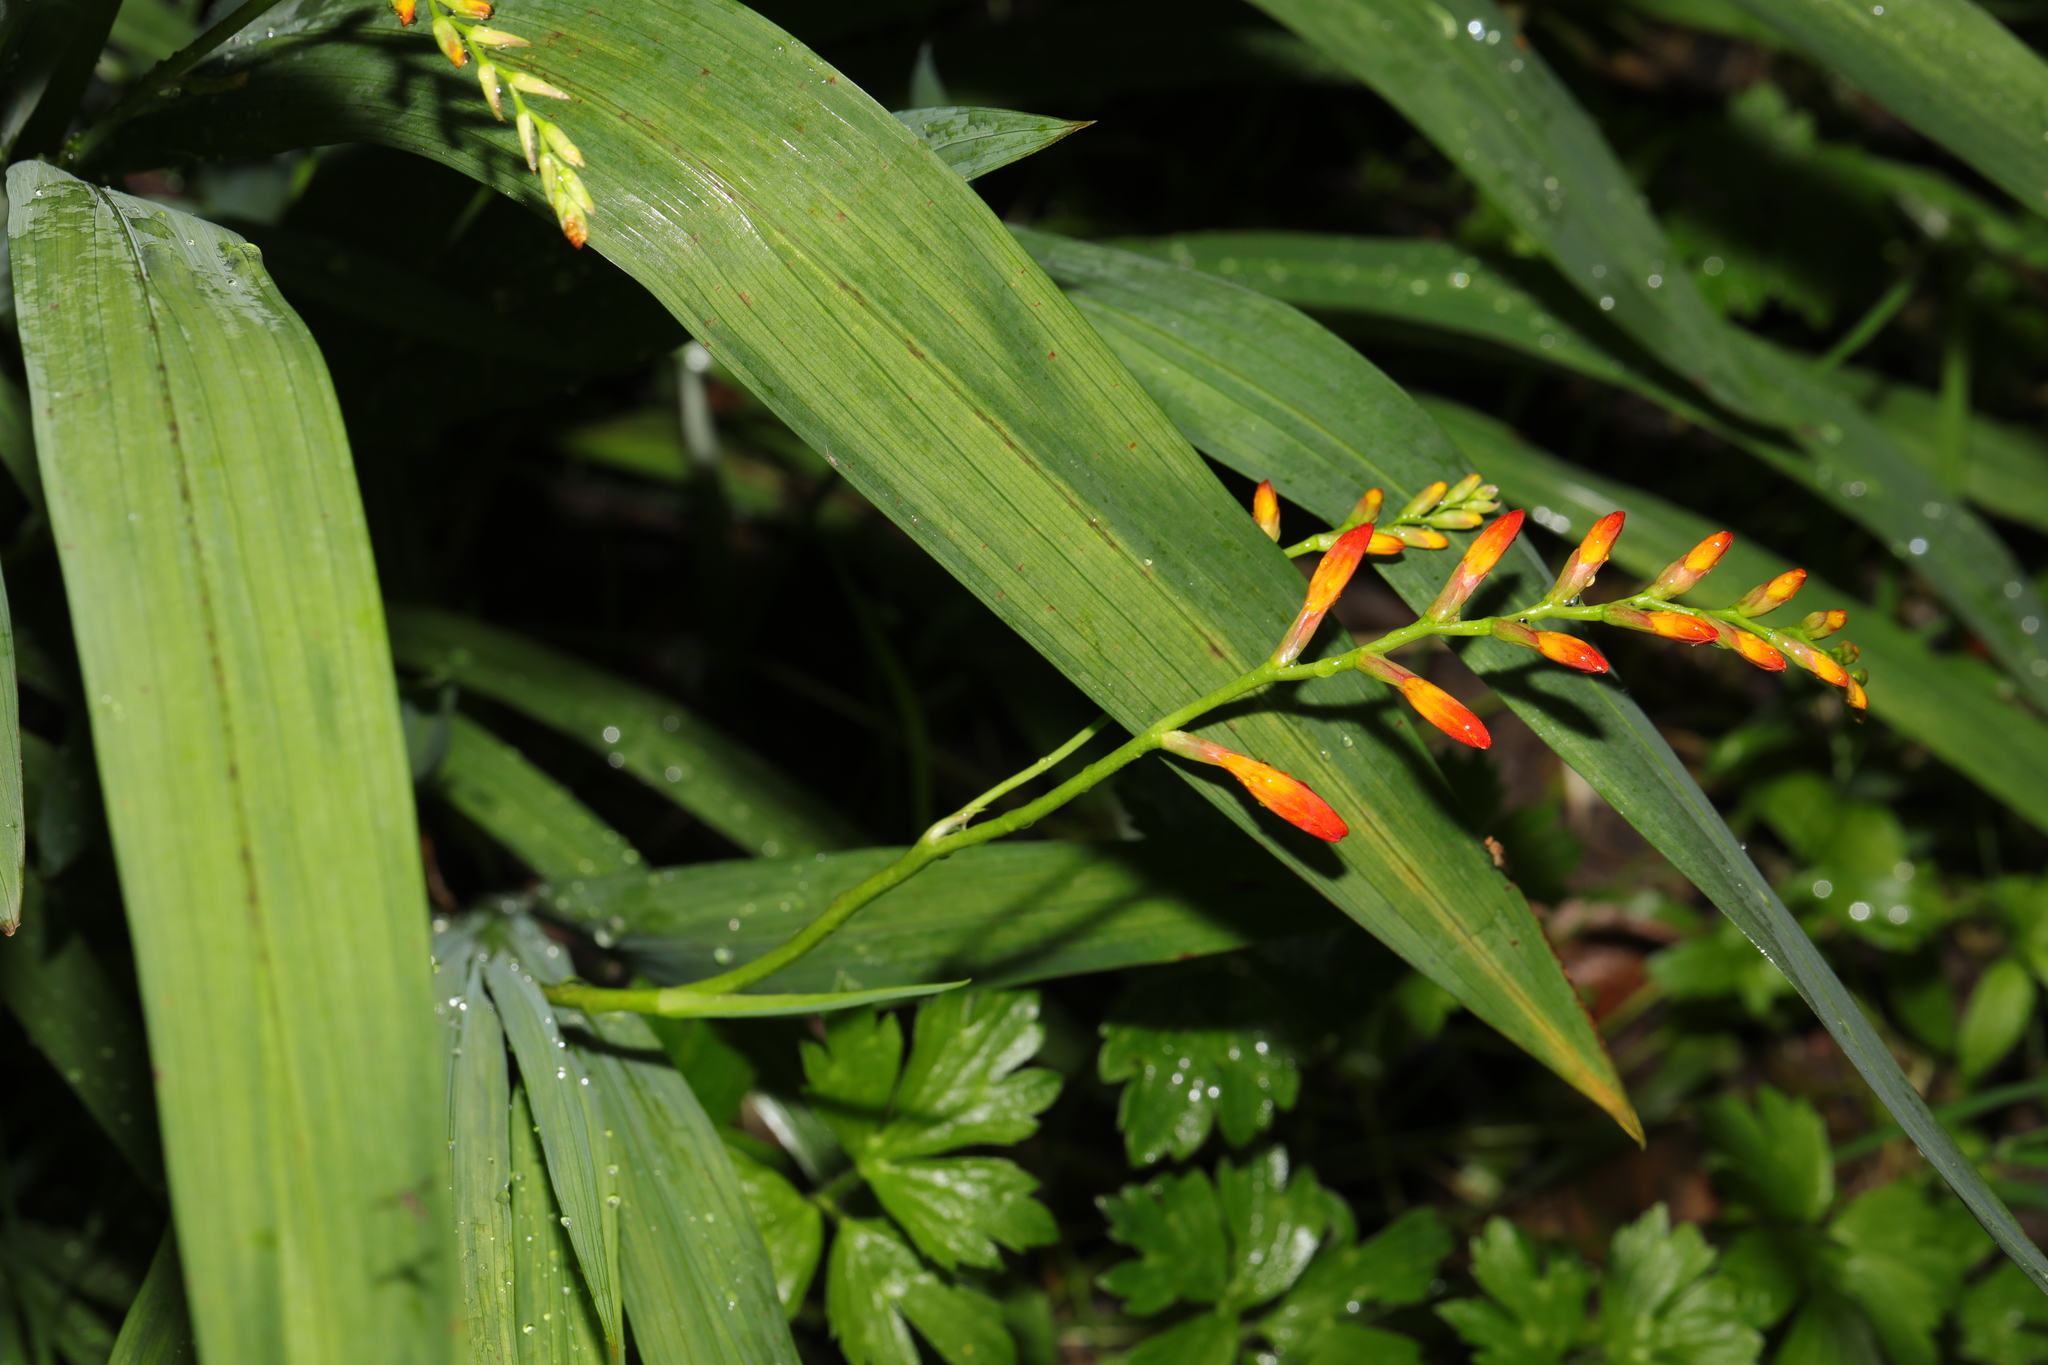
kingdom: Plantae
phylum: Tracheophyta
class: Liliopsida
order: Asparagales
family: Iridaceae
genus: Crocosmia
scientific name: Crocosmia crocosmiiflora
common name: Montbretia
